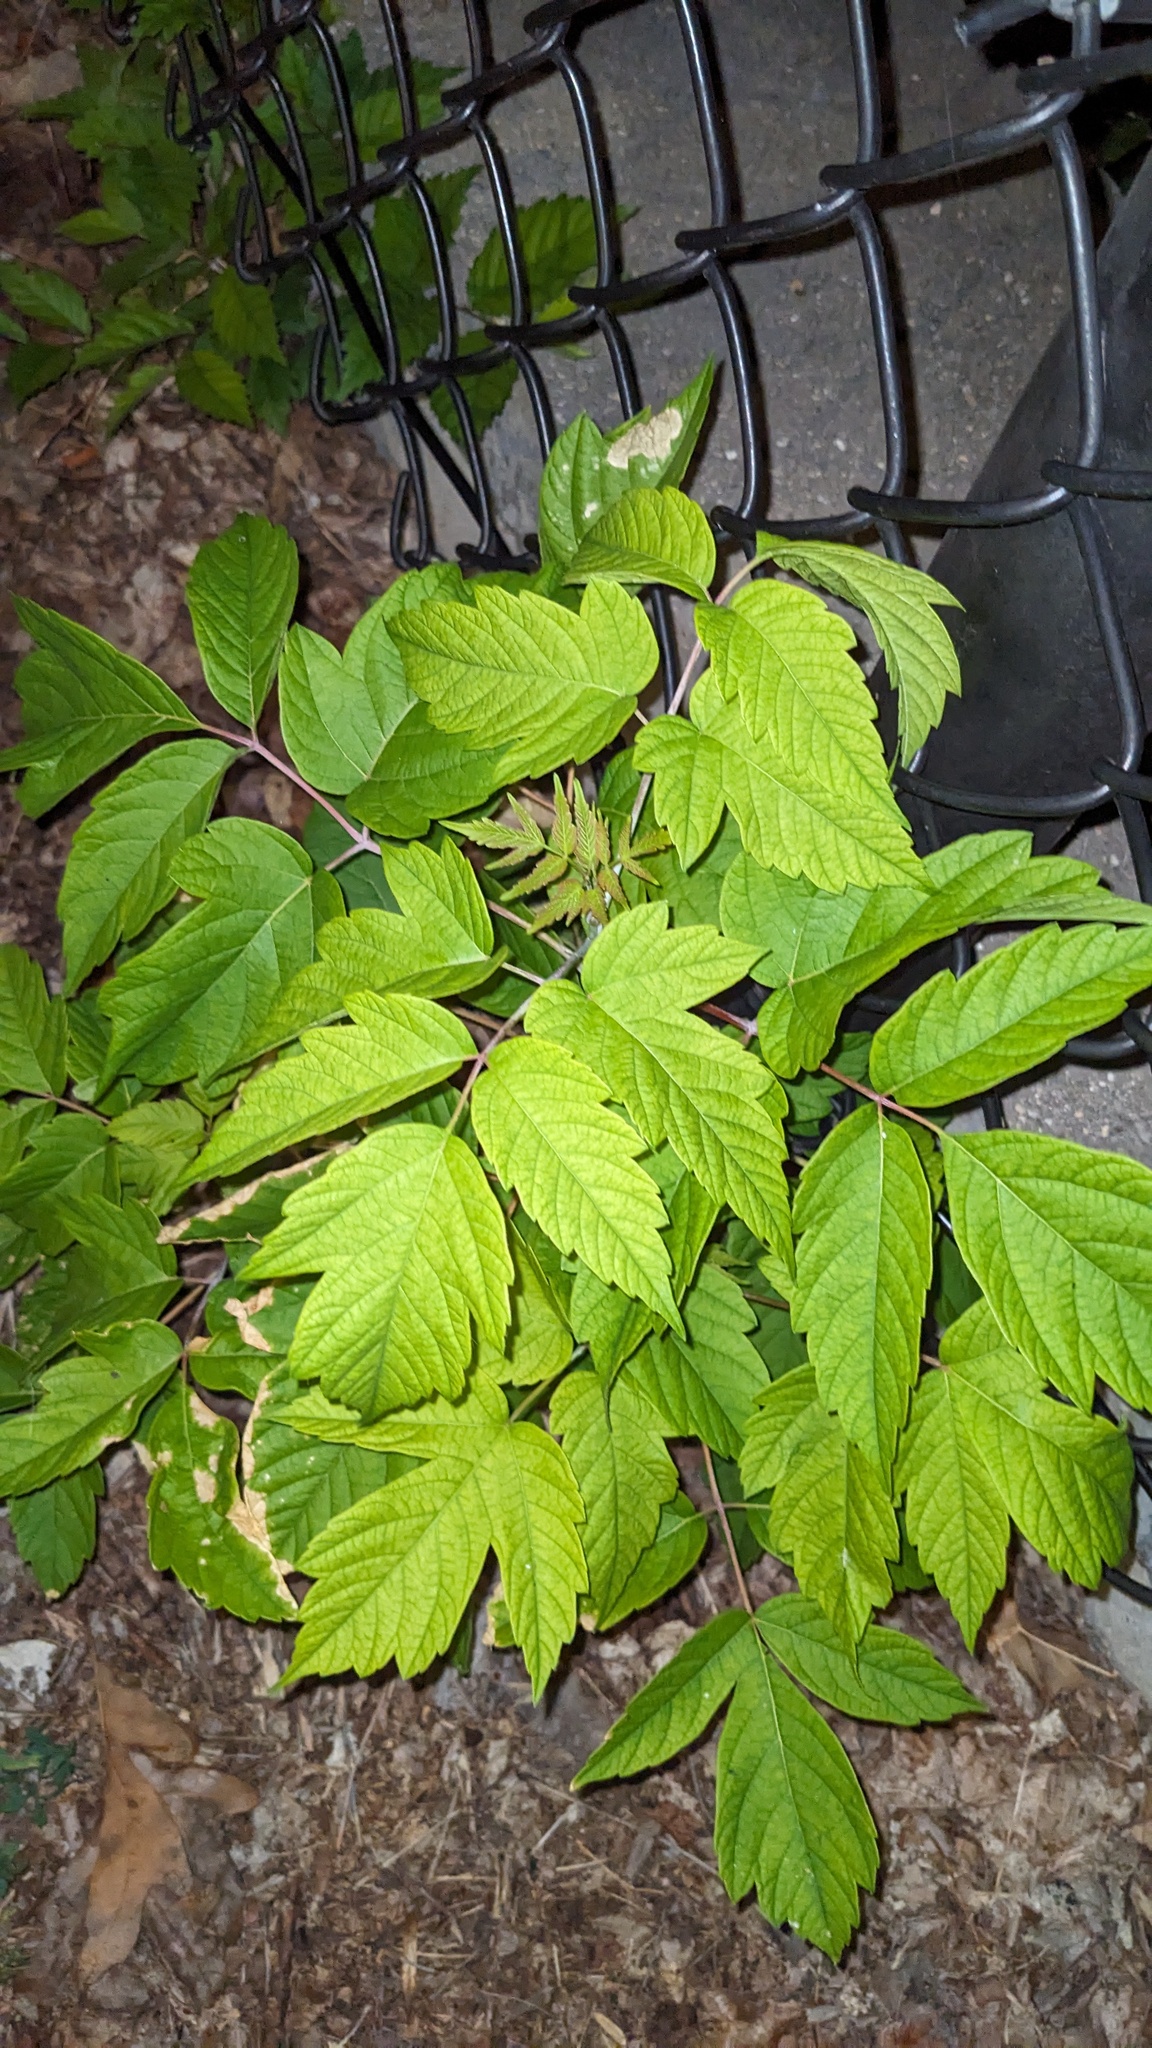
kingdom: Plantae
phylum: Tracheophyta
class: Magnoliopsida
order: Sapindales
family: Sapindaceae
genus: Acer
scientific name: Acer negundo
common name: Ashleaf maple
